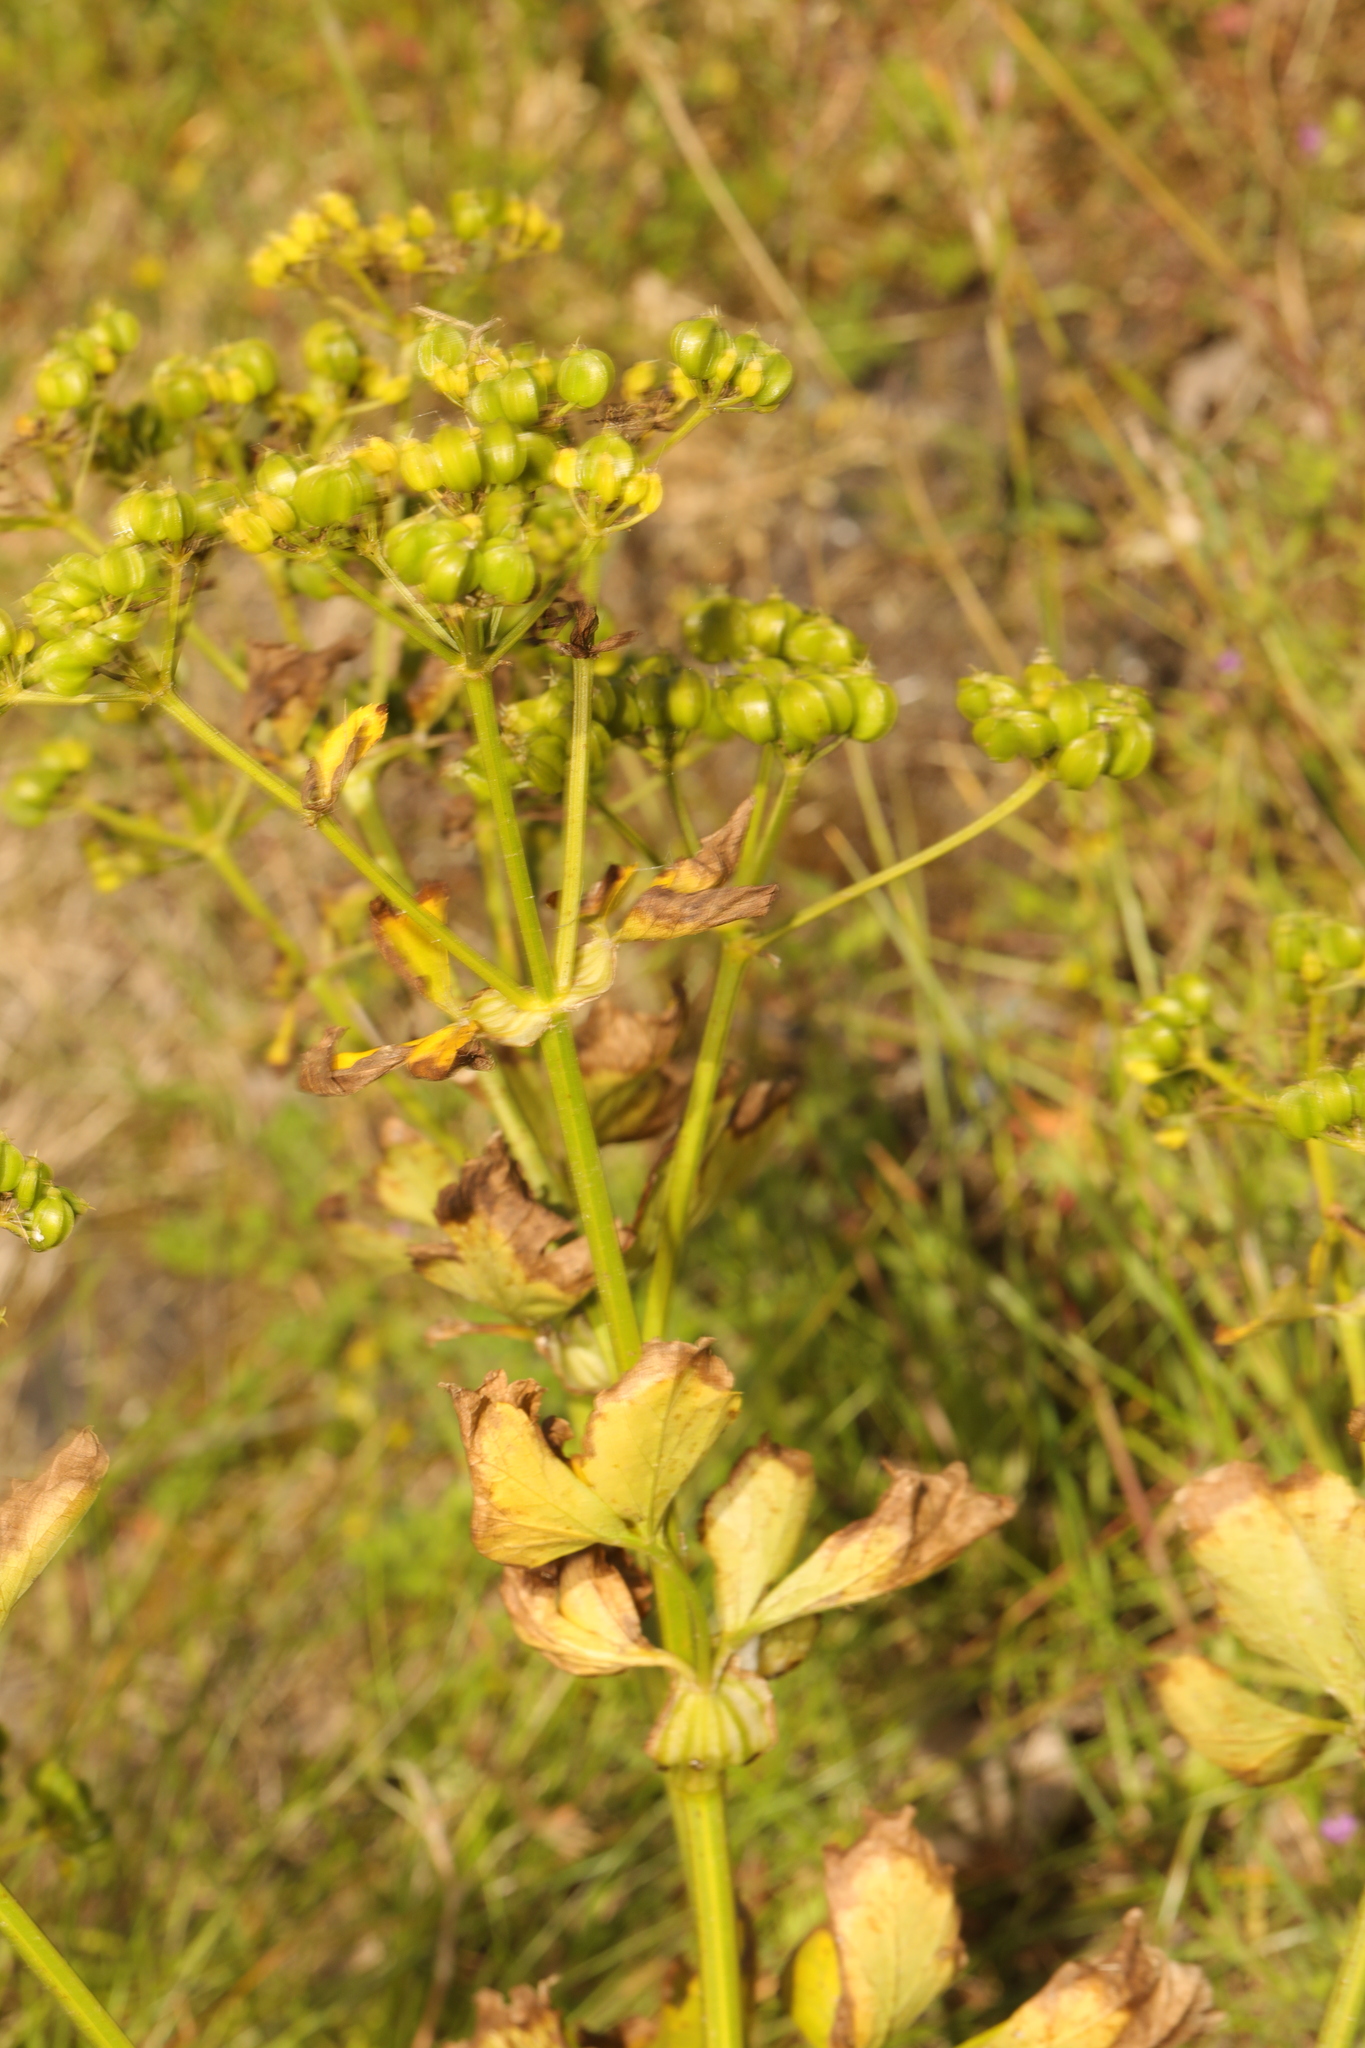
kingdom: Plantae
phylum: Tracheophyta
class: Magnoliopsida
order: Apiales
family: Apiaceae
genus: Smyrnium
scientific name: Smyrnium olusatrum
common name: Alexanders
